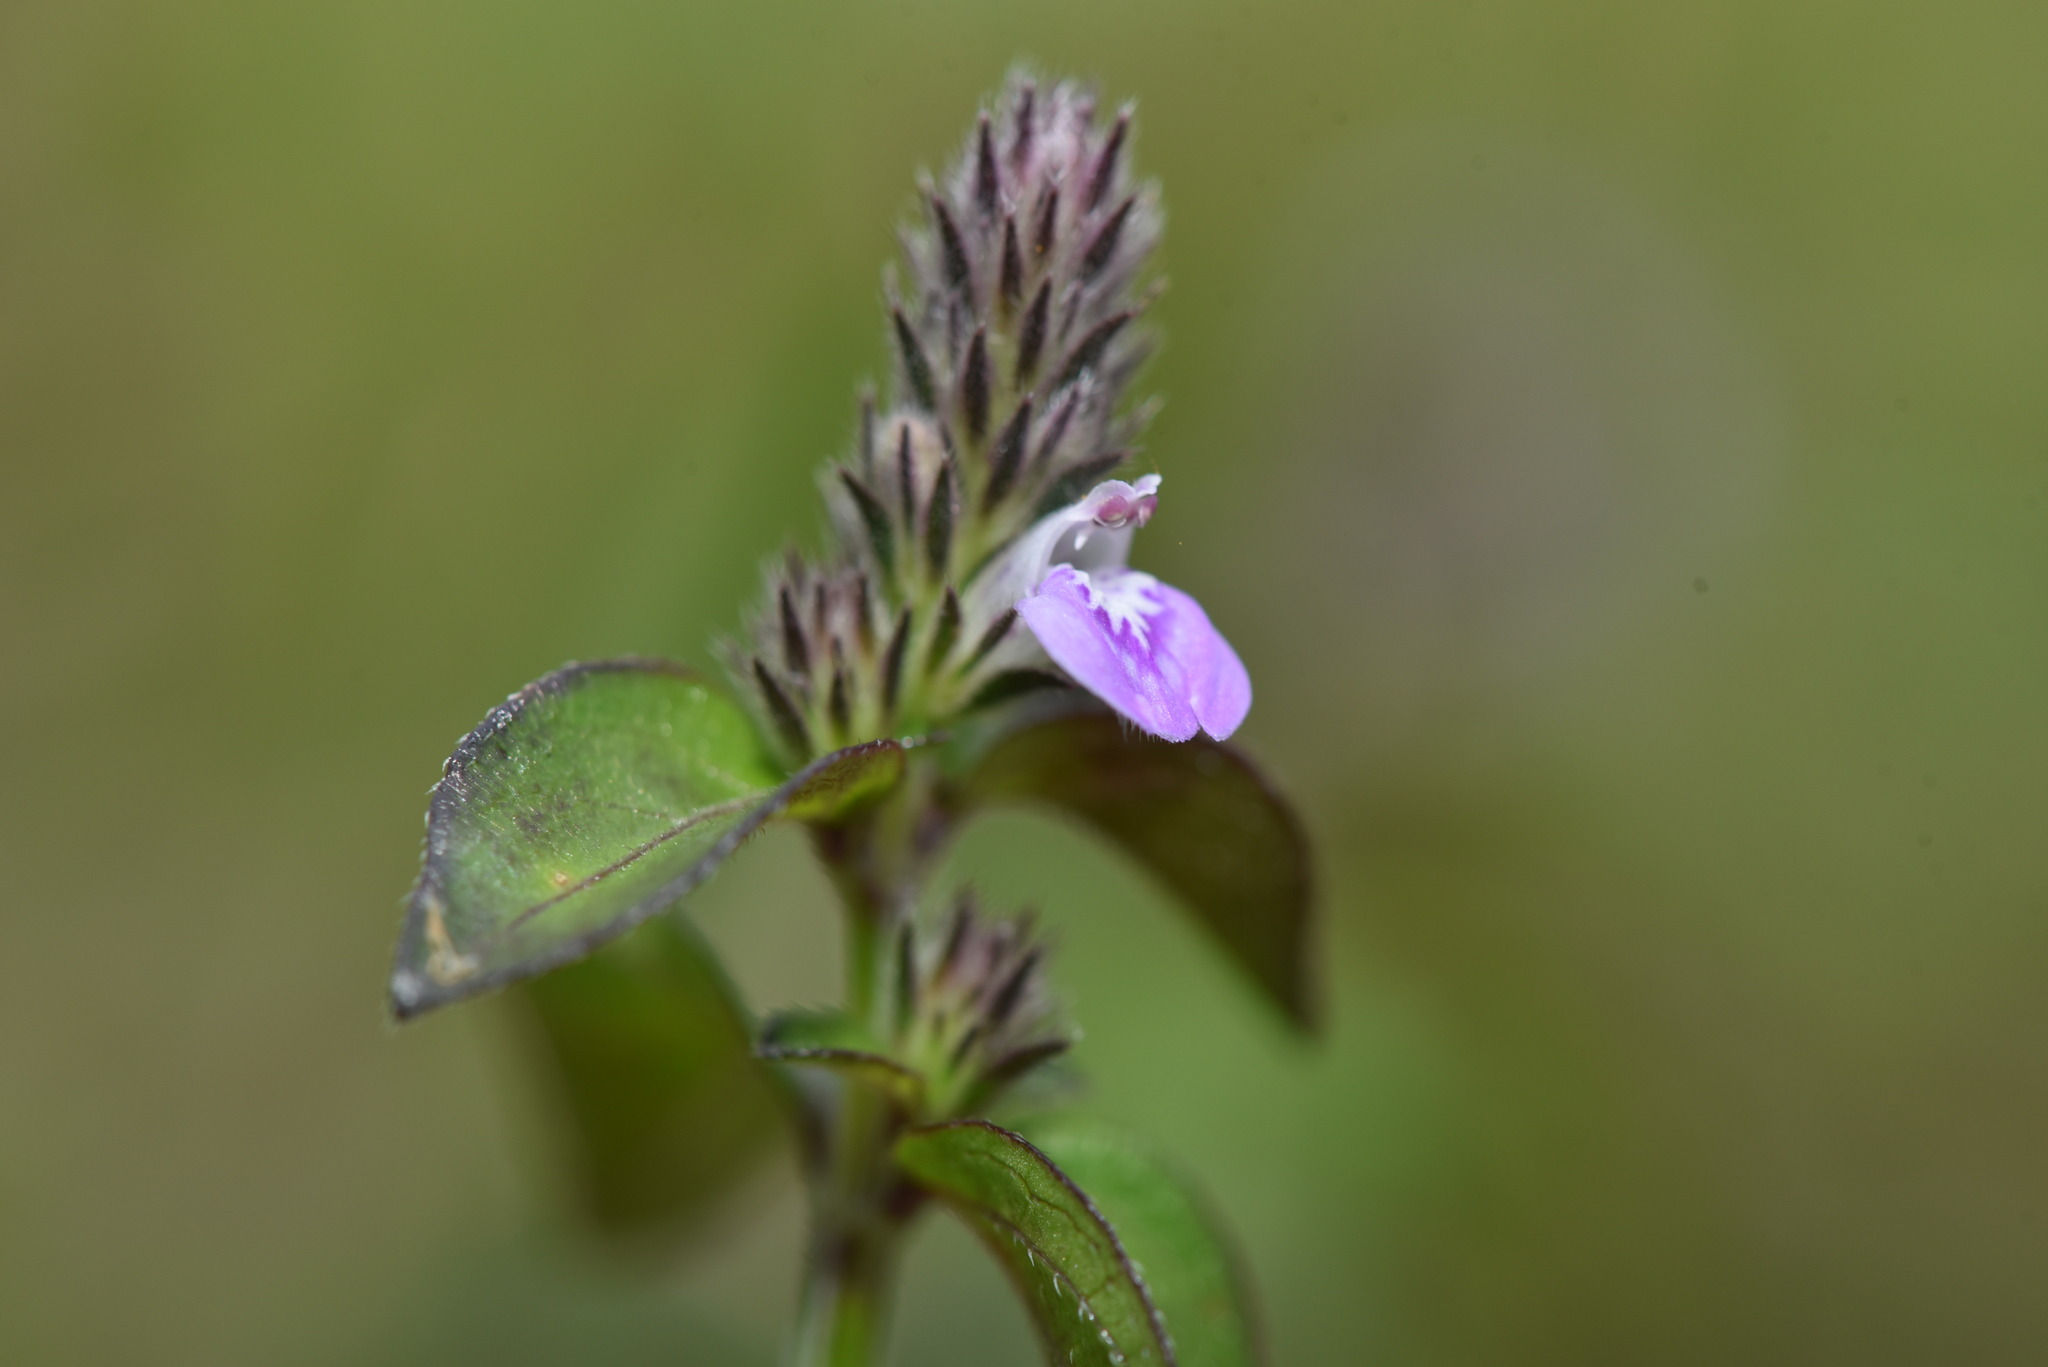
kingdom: Plantae
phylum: Tracheophyta
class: Magnoliopsida
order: Lamiales
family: Acanthaceae
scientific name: Acanthaceae
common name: Acanthaceae
